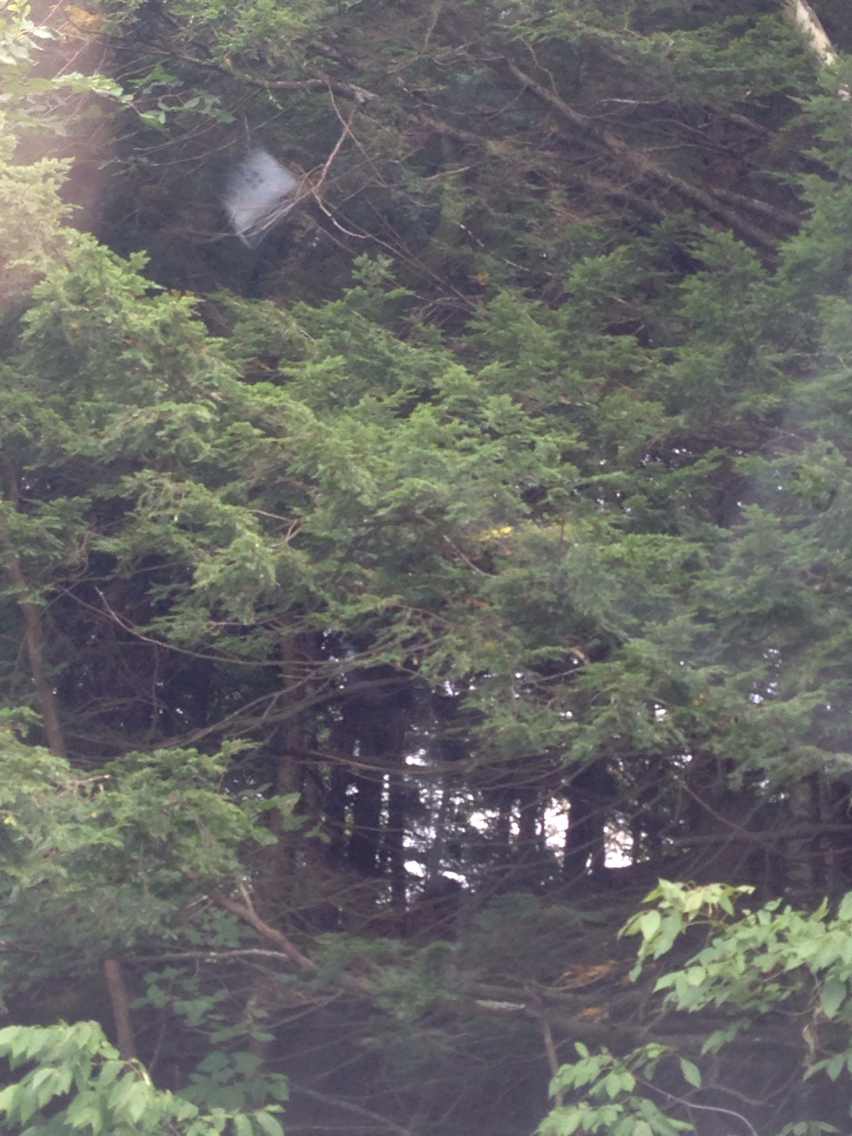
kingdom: Plantae
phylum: Tracheophyta
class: Pinopsida
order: Pinales
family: Pinaceae
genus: Tsuga
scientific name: Tsuga canadensis
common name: Eastern hemlock
